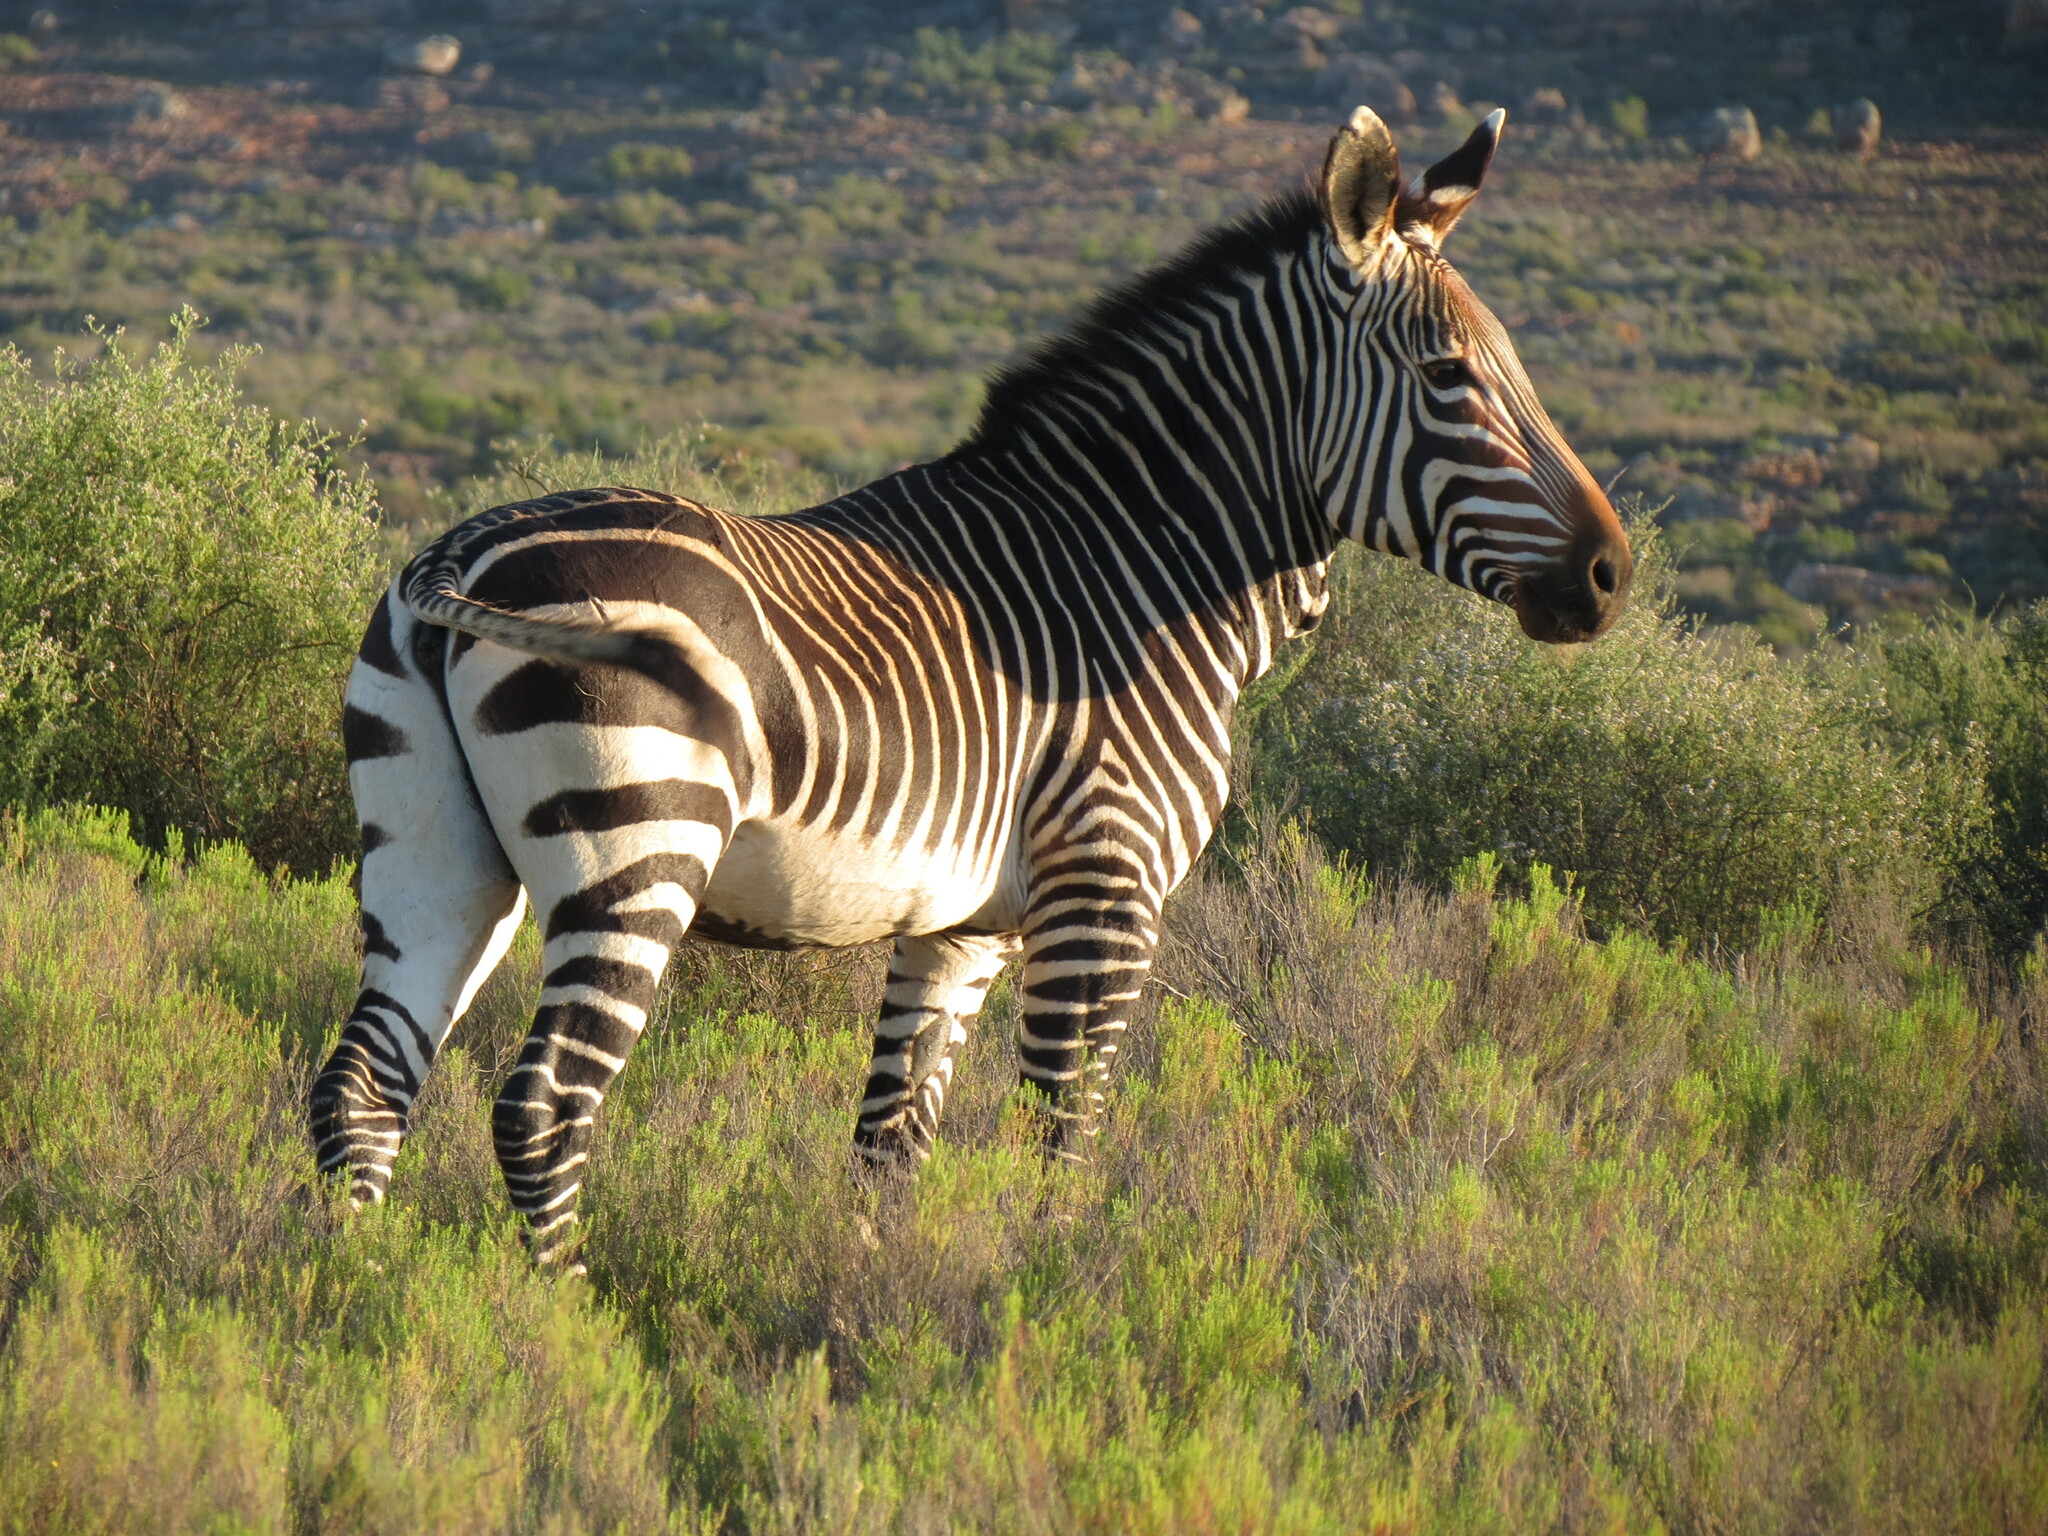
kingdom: Animalia
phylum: Chordata
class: Mammalia
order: Perissodactyla
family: Equidae
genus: Equus
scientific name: Equus zebra
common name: Mountain zebra
